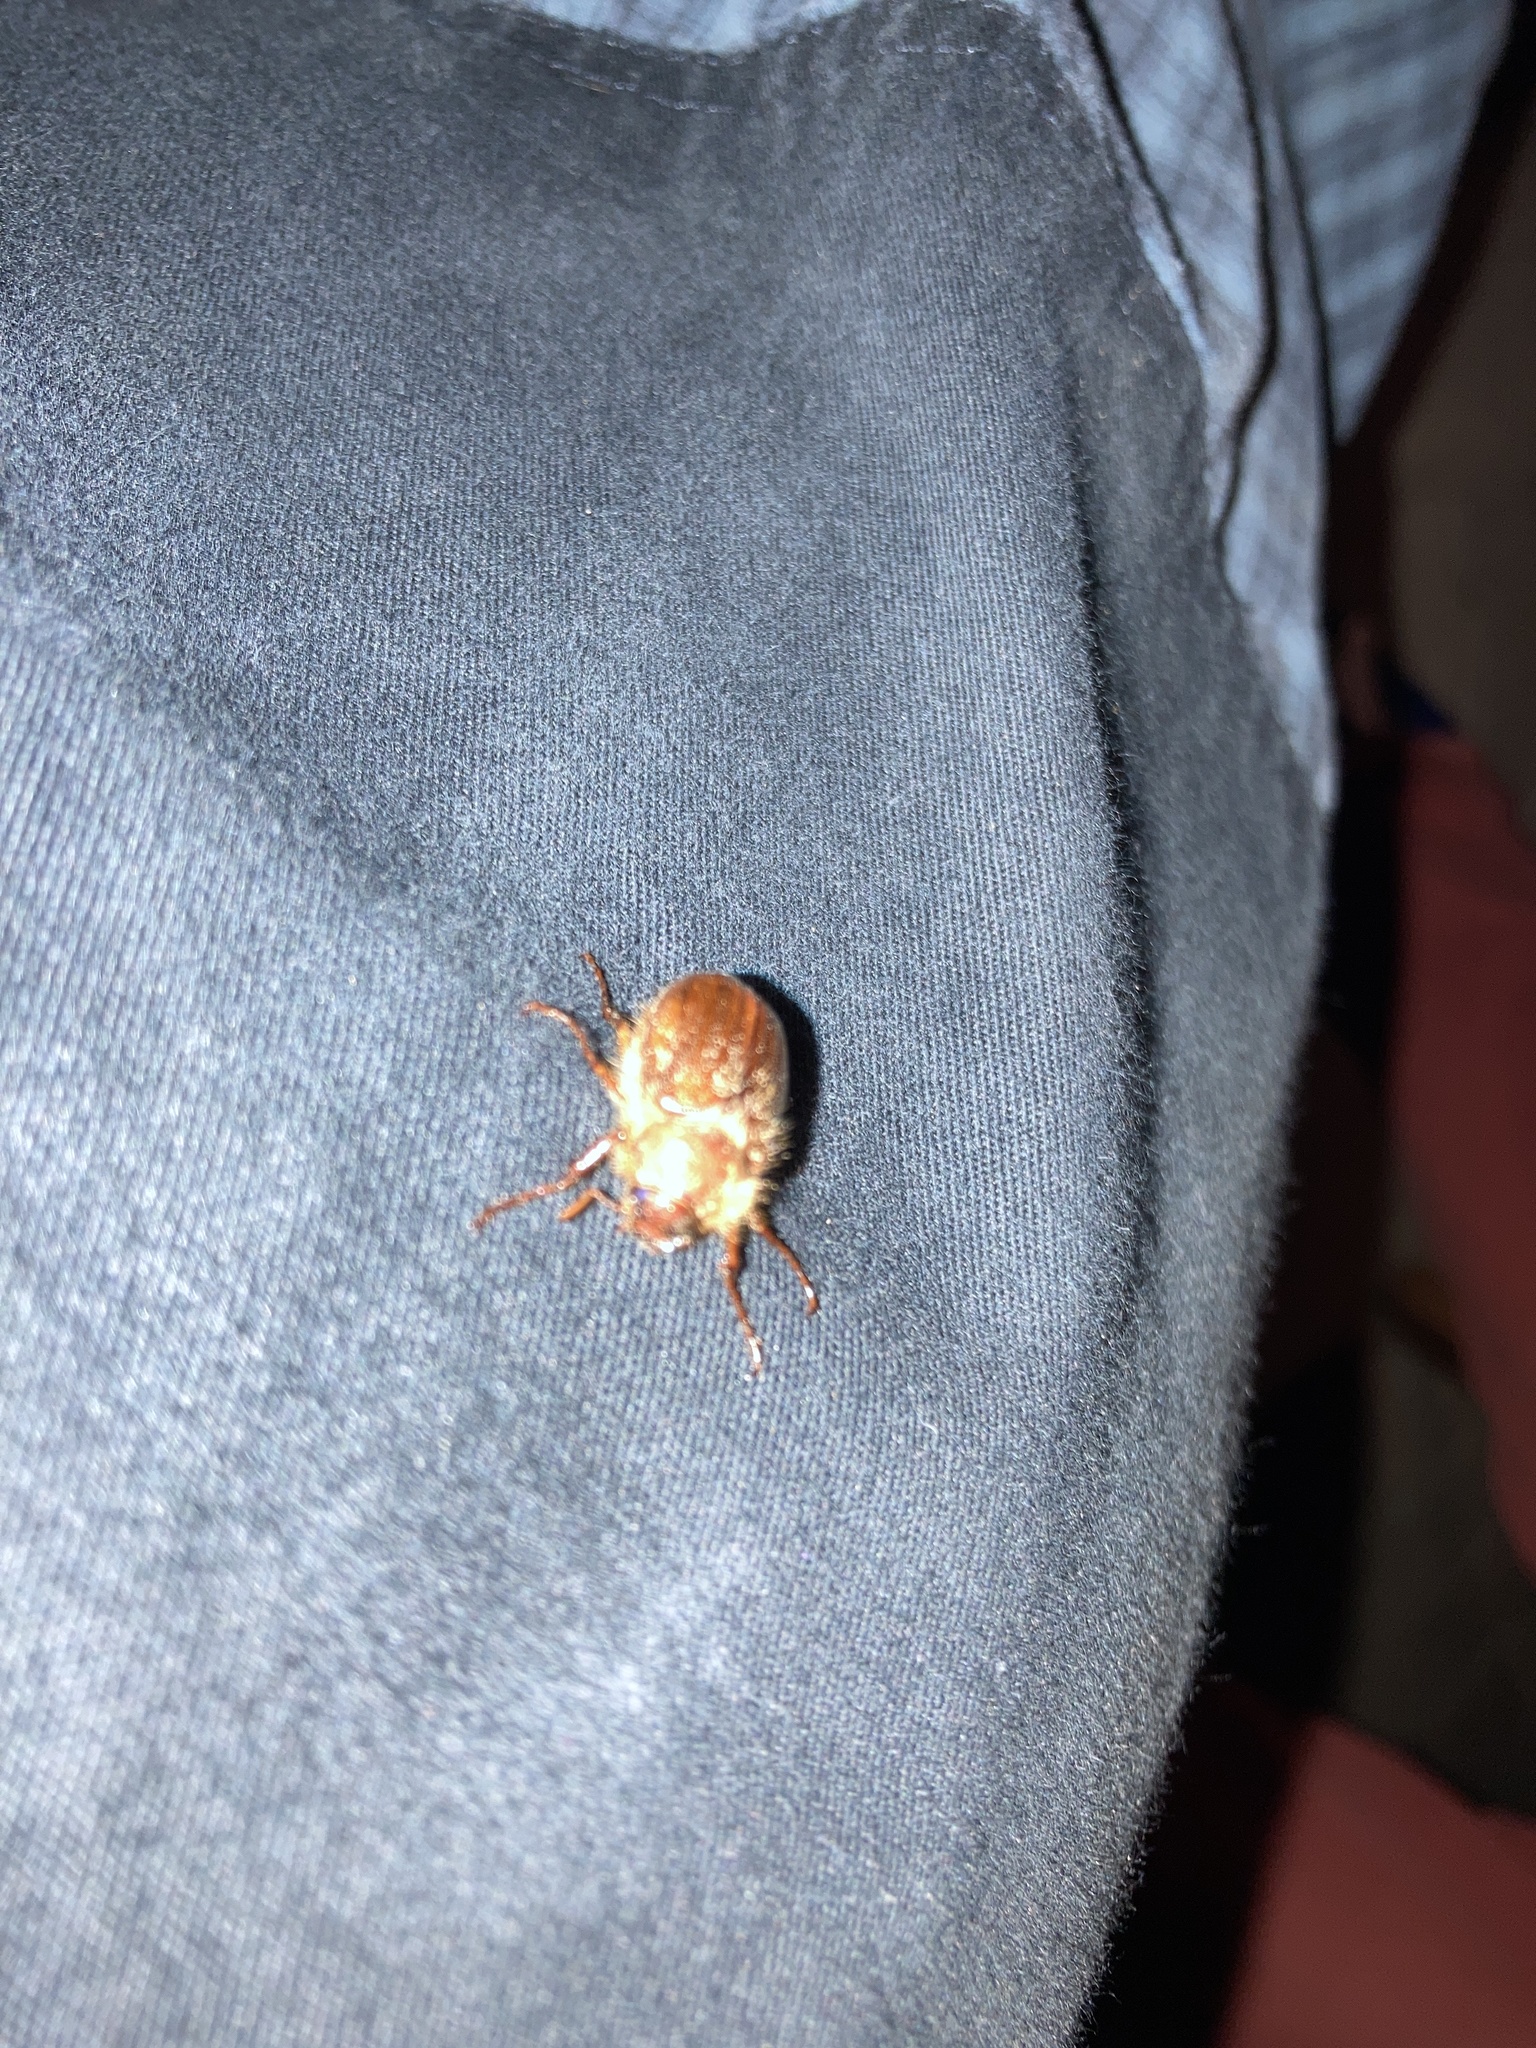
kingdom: Animalia
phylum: Arthropoda
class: Insecta
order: Coleoptera
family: Scarabaeidae
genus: Amphimallon
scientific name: Amphimallon solstitiale
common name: Summer chafer
